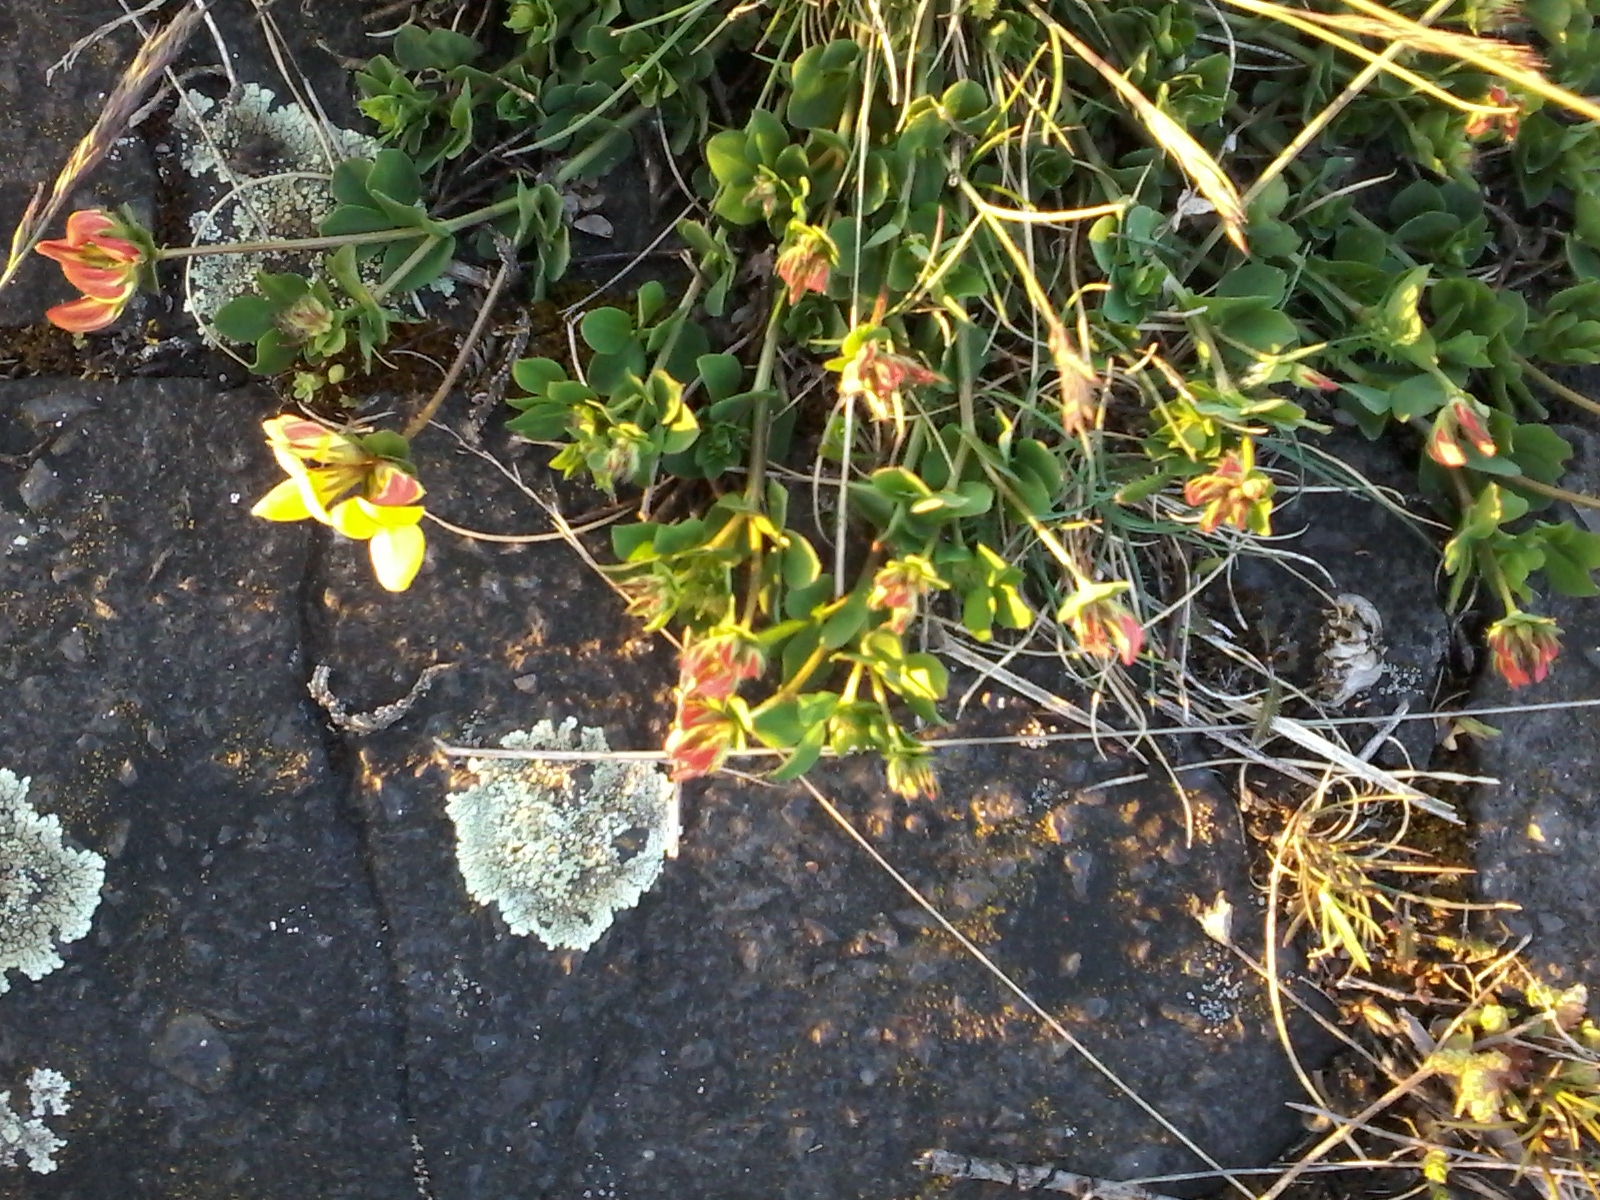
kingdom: Plantae
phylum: Tracheophyta
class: Magnoliopsida
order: Fabales
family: Fabaceae
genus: Lotus
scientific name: Lotus corniculatus
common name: Common bird's-foot-trefoil
